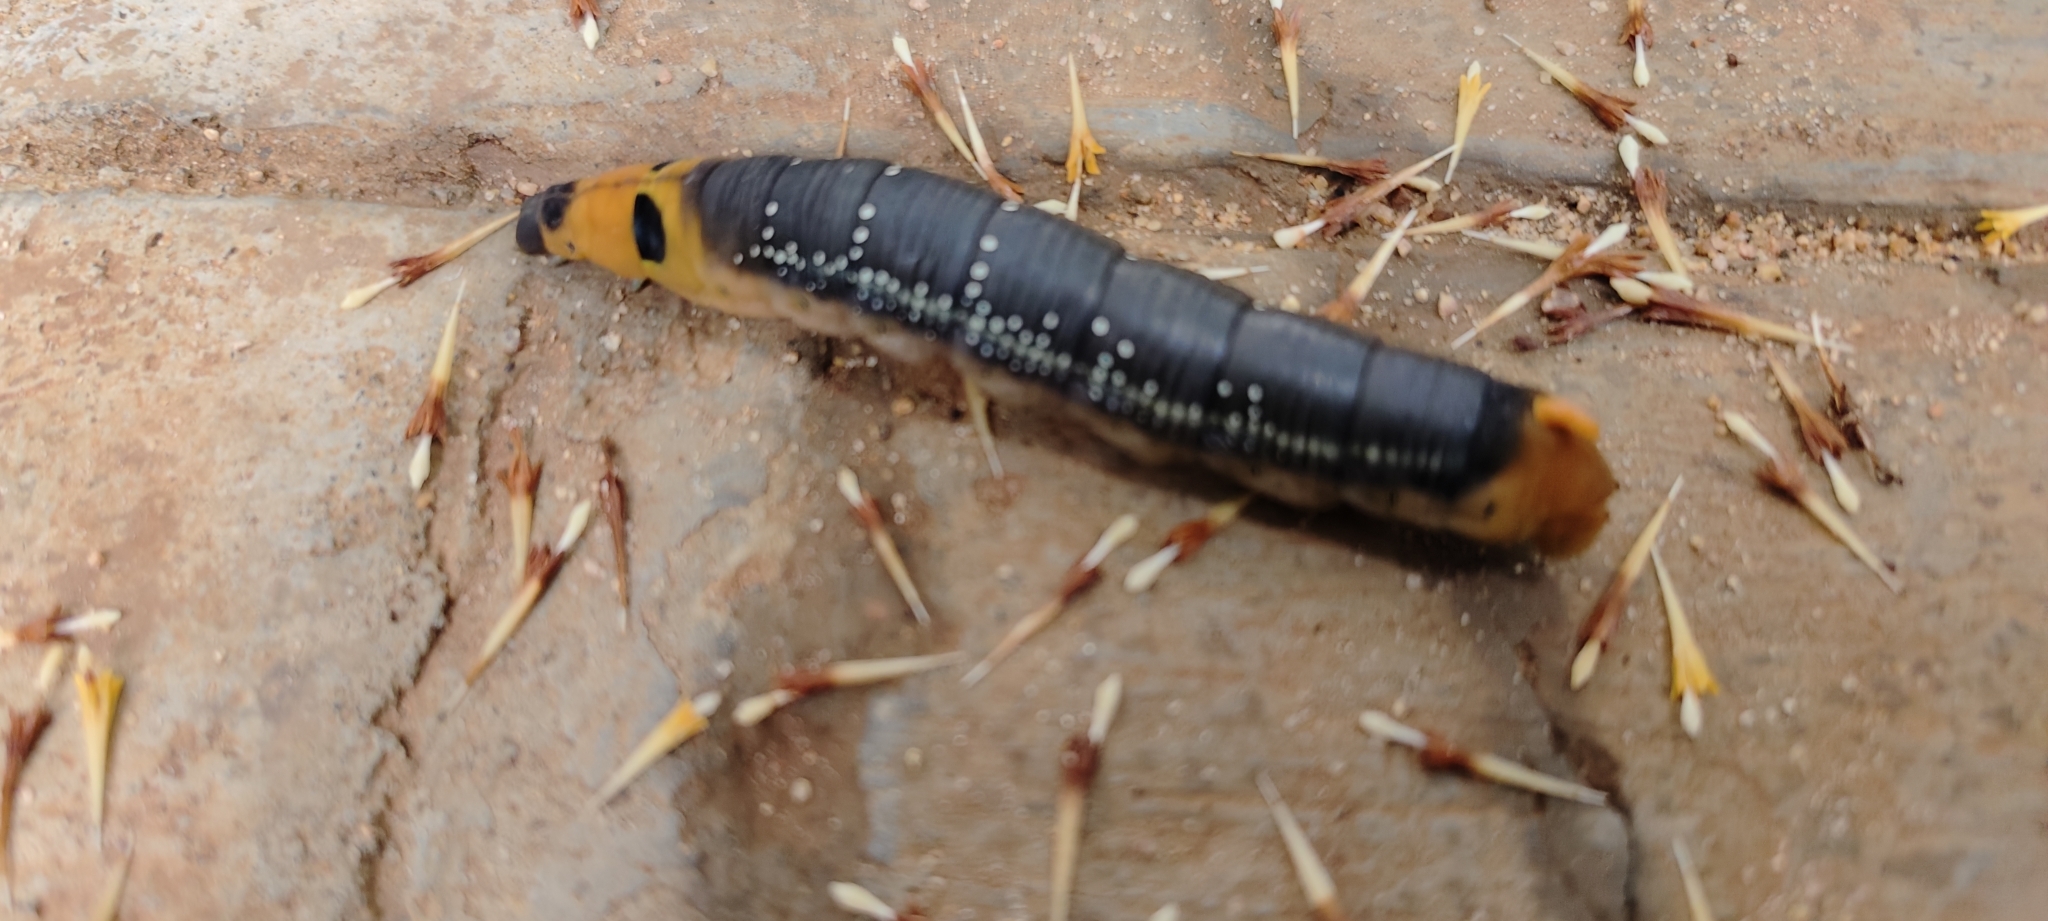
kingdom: Animalia
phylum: Arthropoda
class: Insecta
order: Lepidoptera
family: Sphingidae
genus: Daphnis
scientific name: Daphnis nerii
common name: Oleander hawk-moth
